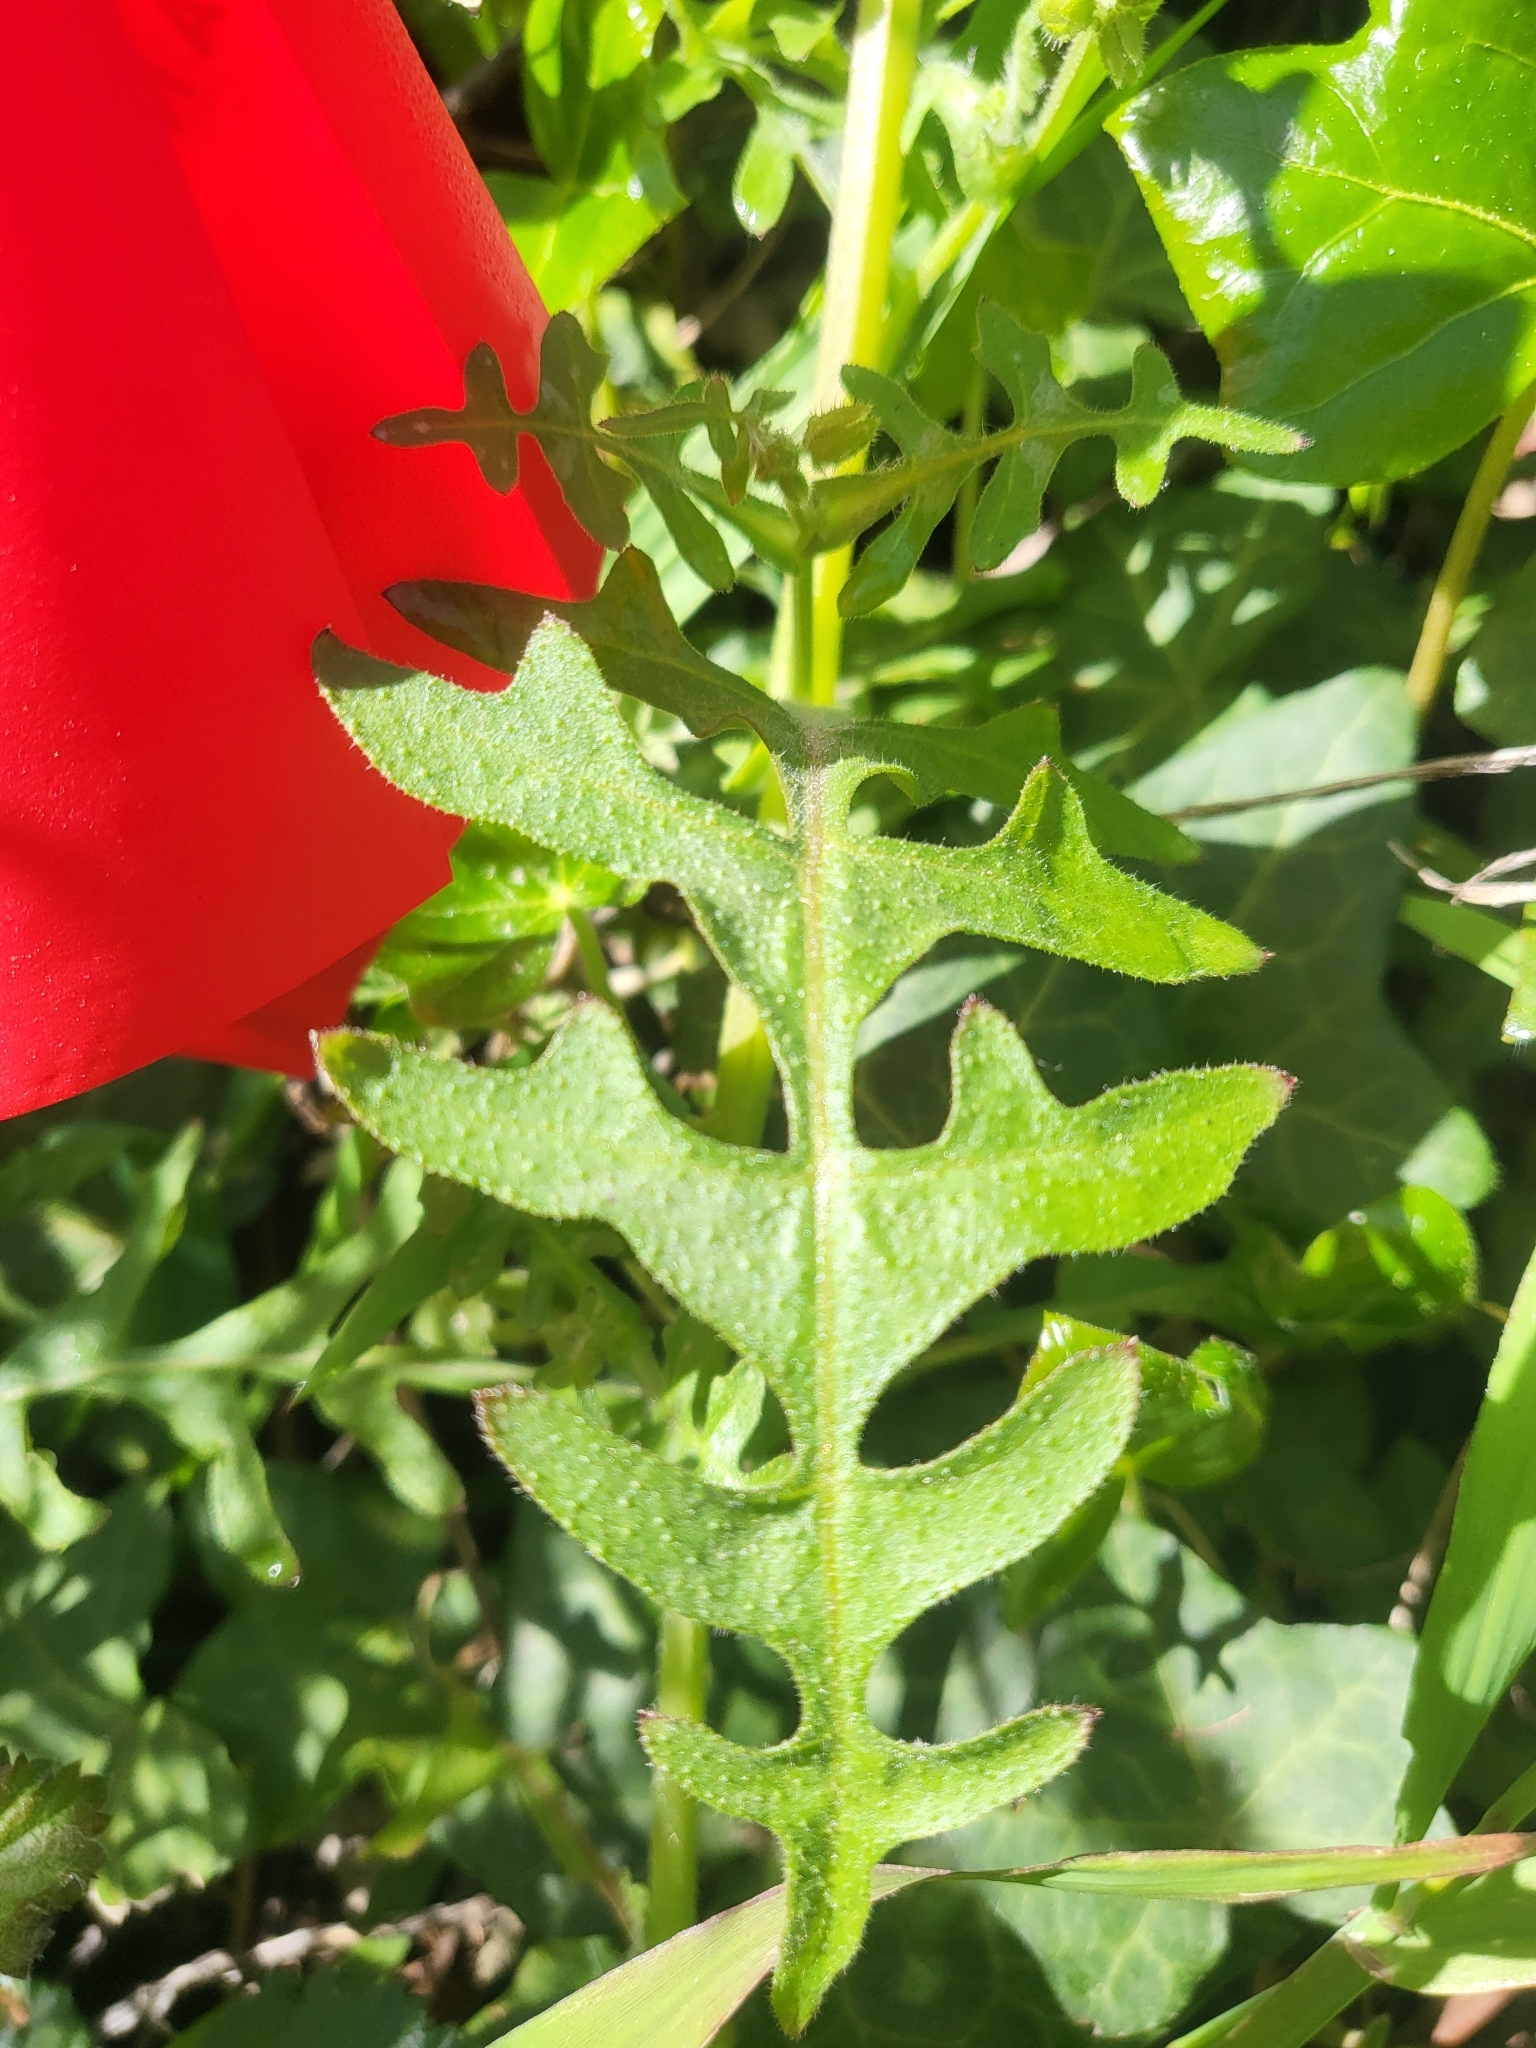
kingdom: Plantae
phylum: Tracheophyta
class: Magnoliopsida
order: Boraginales
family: Hydrophyllaceae
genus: Pholistoma
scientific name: Pholistoma auritum
